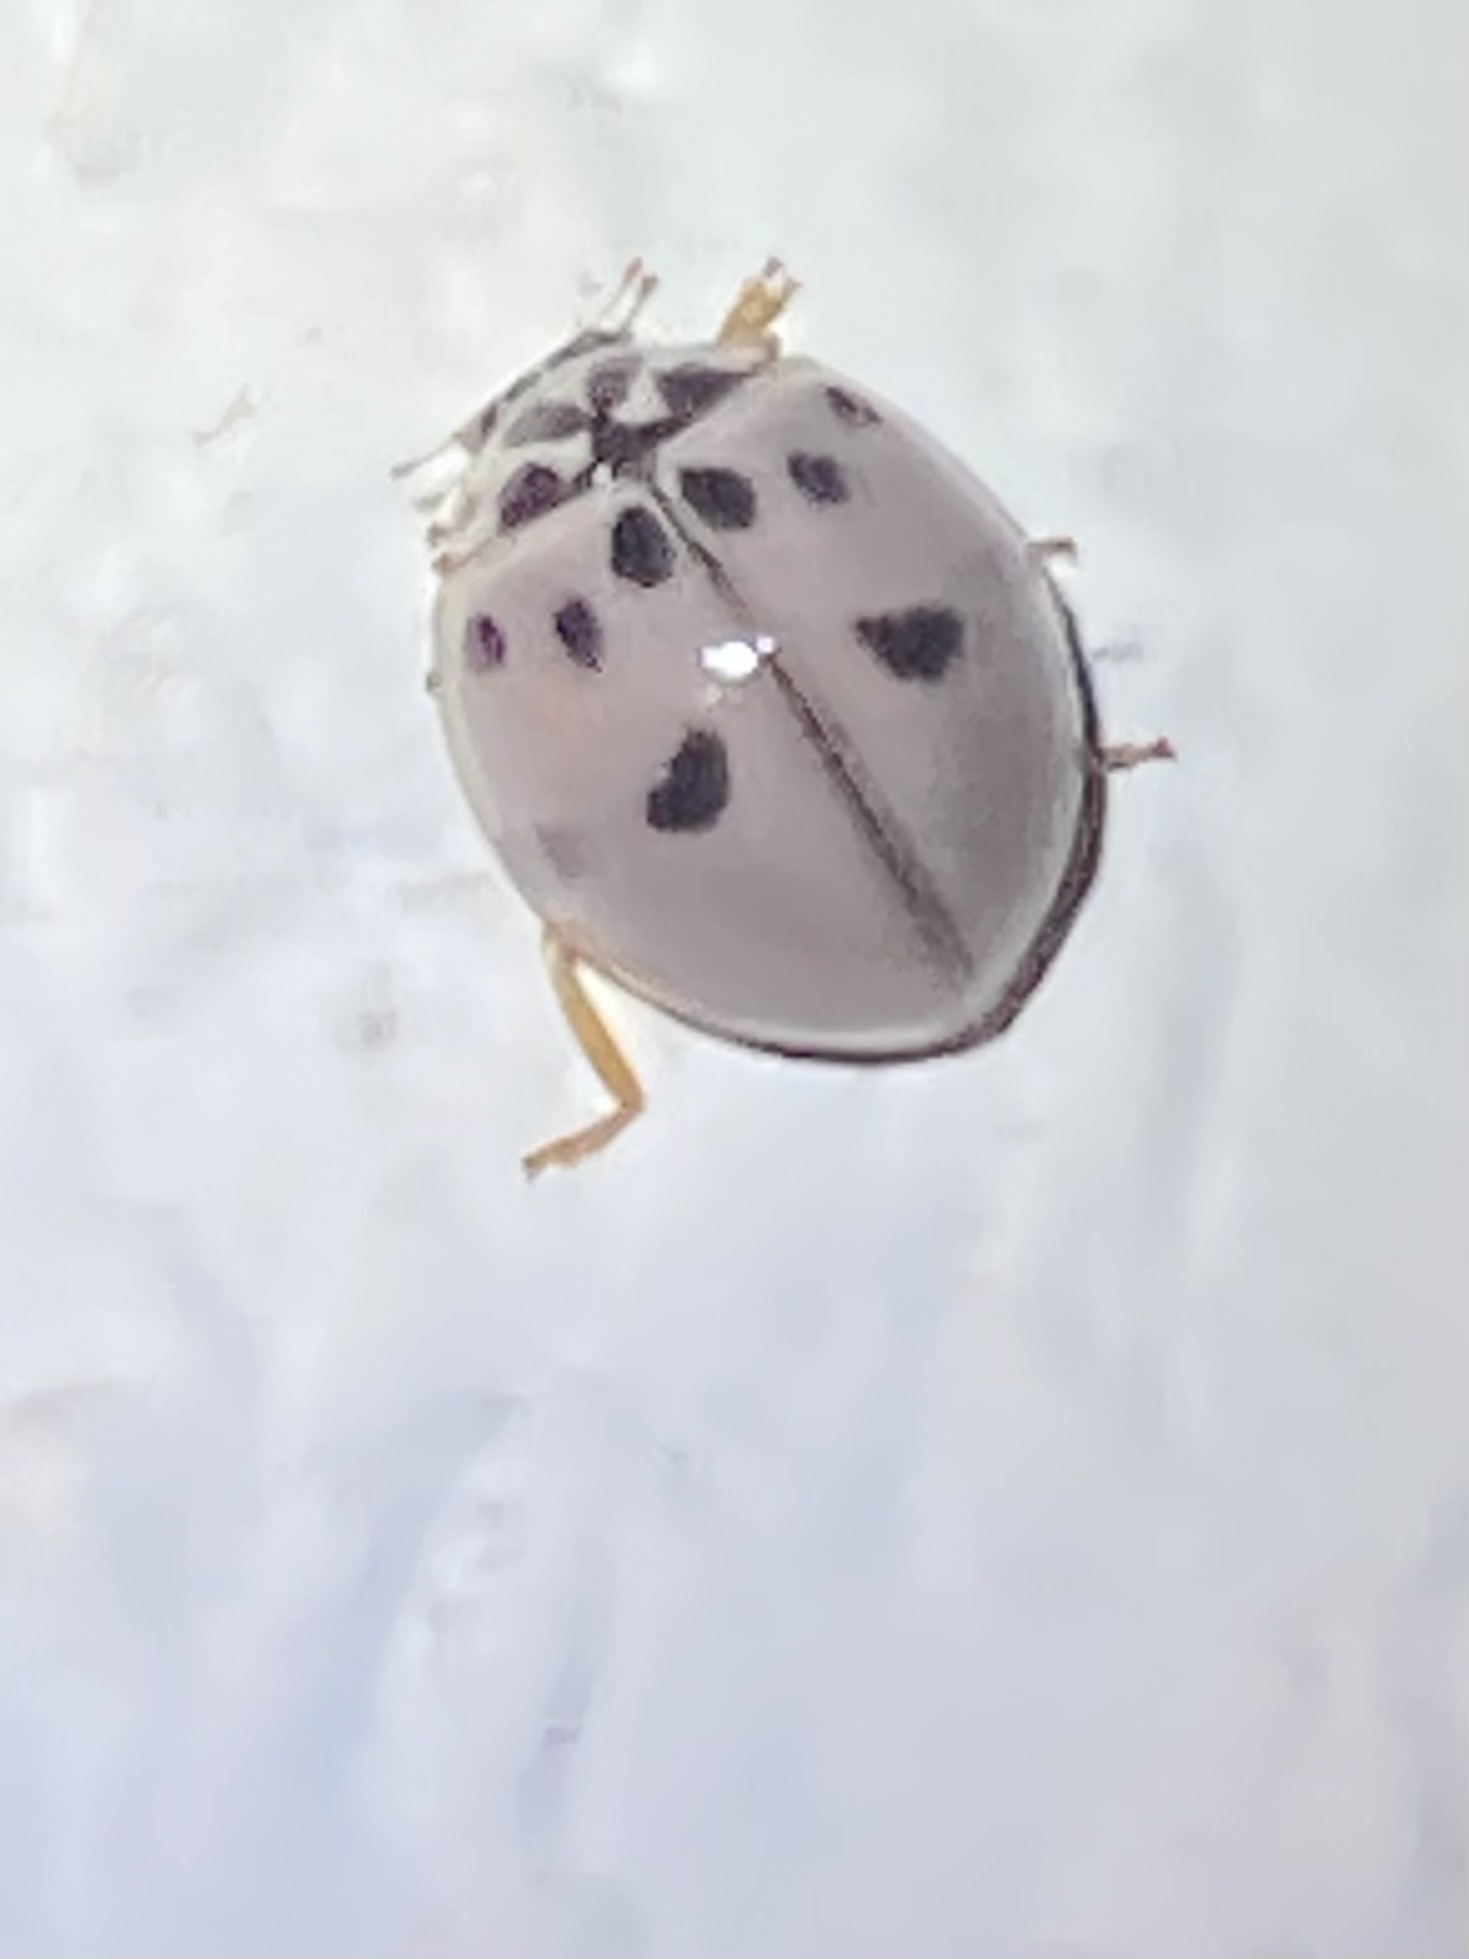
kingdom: Animalia
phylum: Arthropoda
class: Insecta
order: Coleoptera
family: Coccinellidae
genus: Olla
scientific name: Olla v-nigrum
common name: Ashy gray lady beetle
